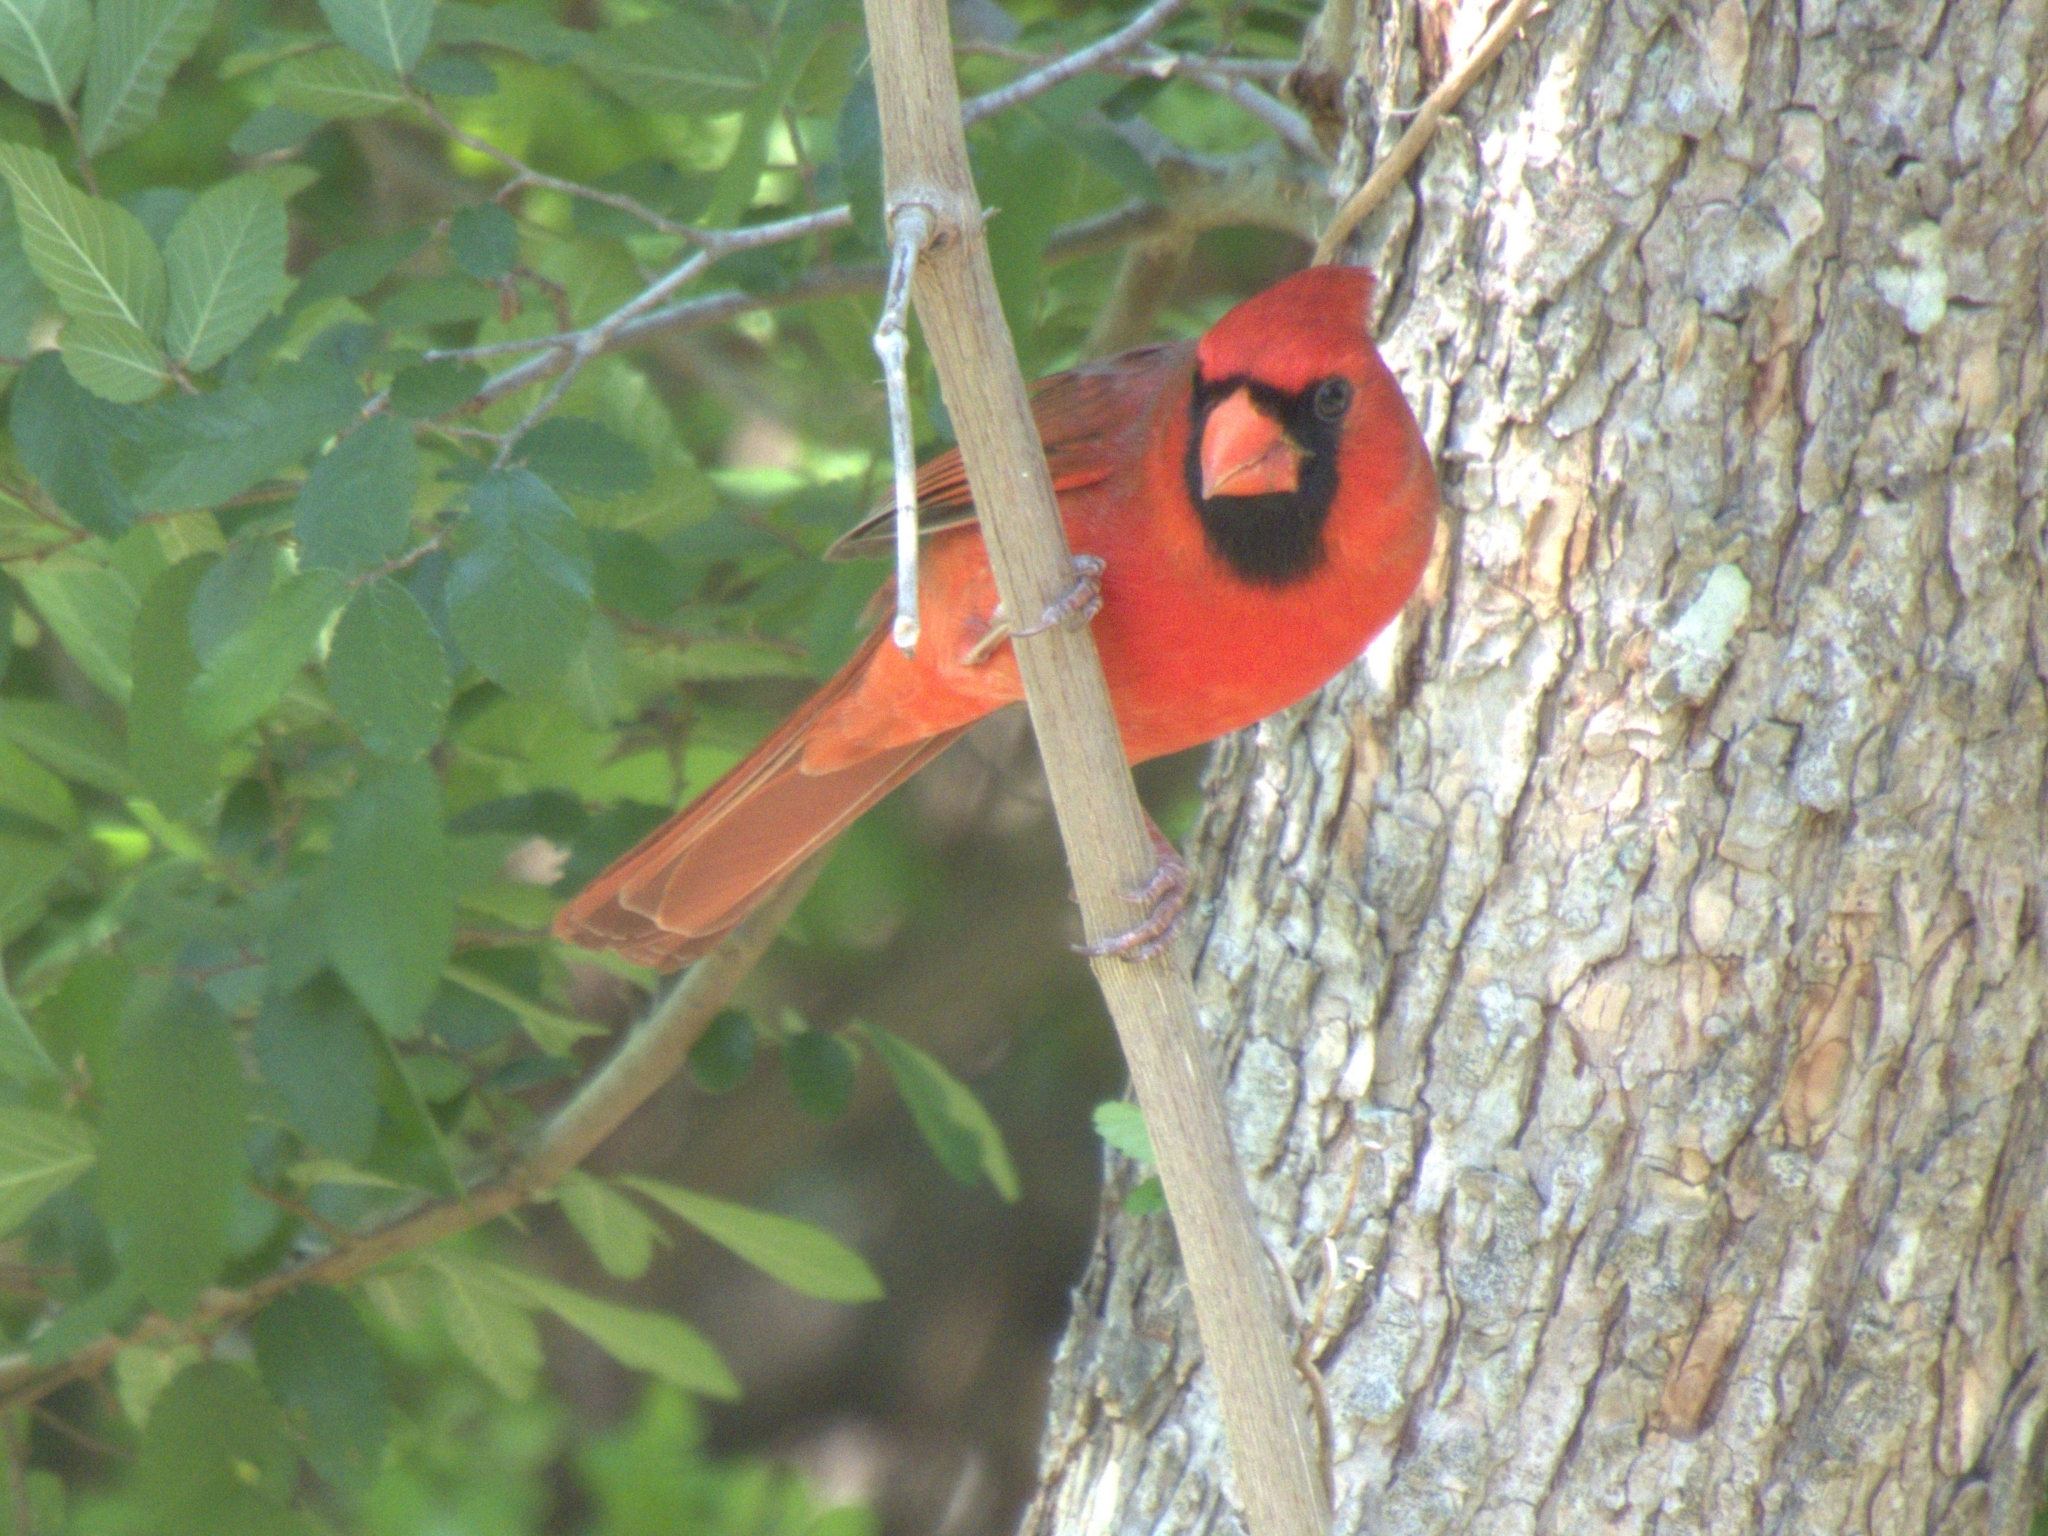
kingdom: Animalia
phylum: Chordata
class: Aves
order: Passeriformes
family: Cardinalidae
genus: Cardinalis
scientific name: Cardinalis cardinalis
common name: Northern cardinal
